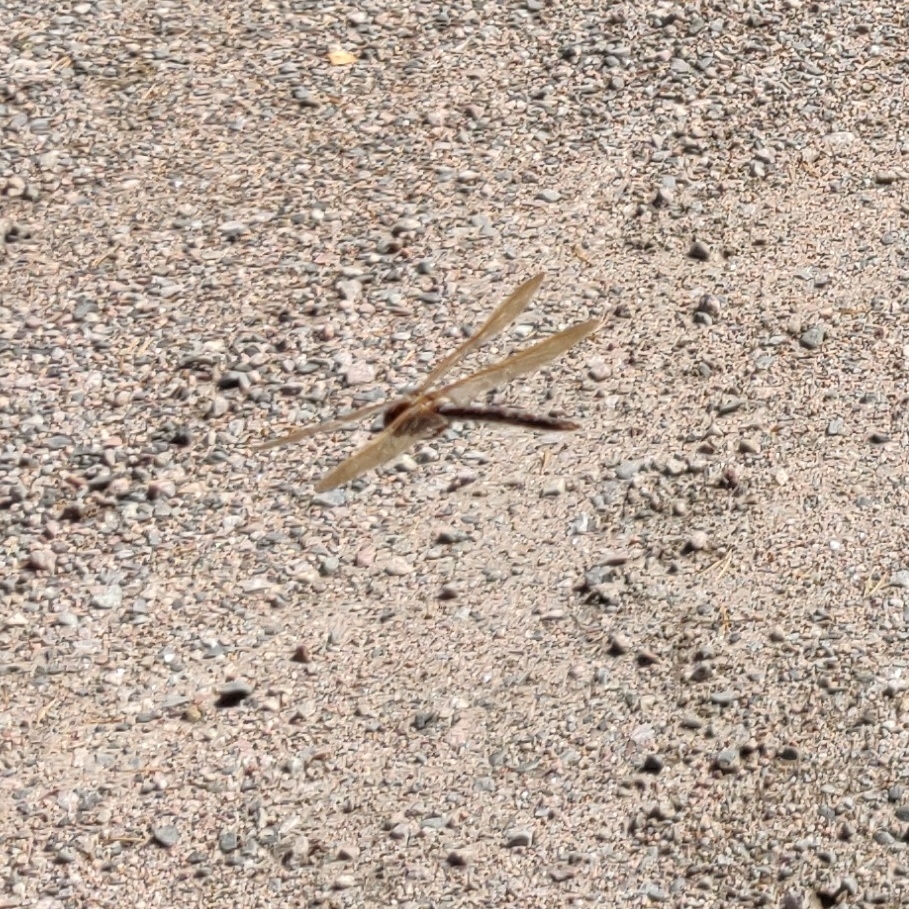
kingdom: Animalia
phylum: Arthropoda
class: Insecta
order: Odonata
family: Aeshnidae
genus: Aeshna
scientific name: Aeshna grandis
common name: Brown hawker
